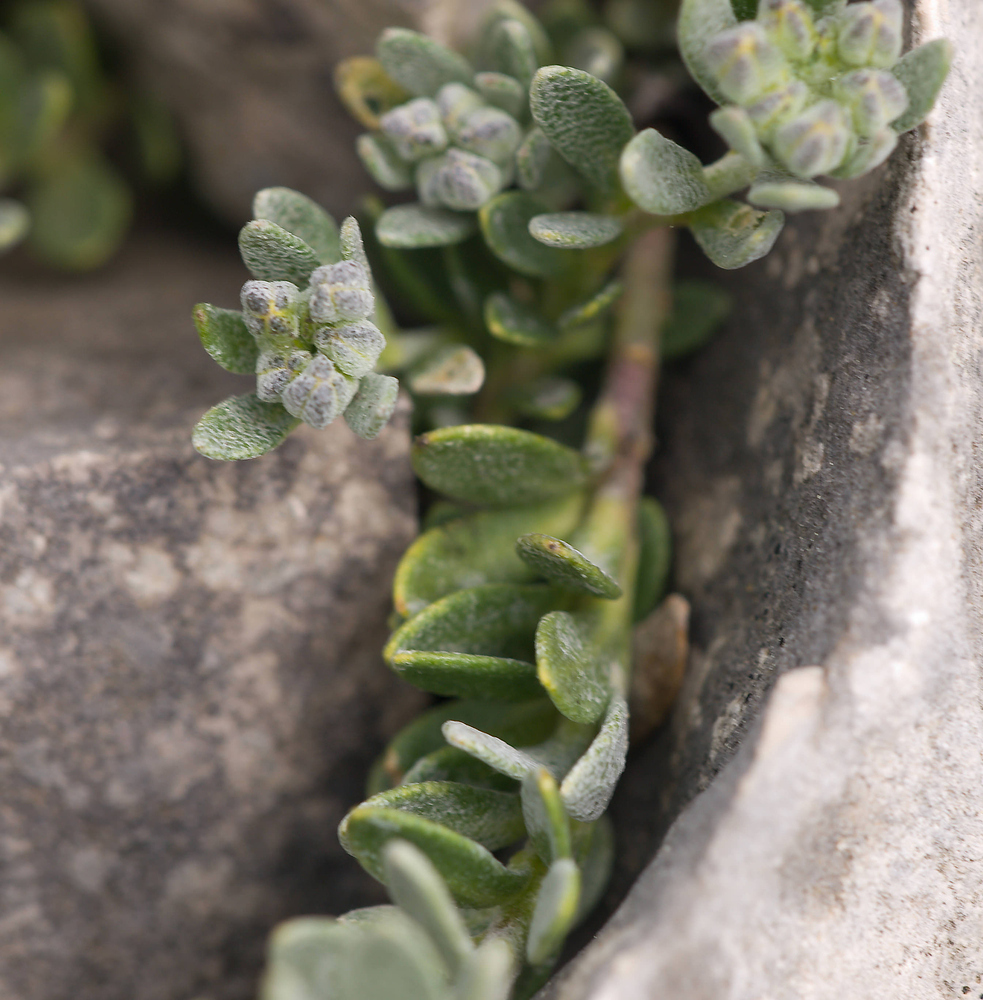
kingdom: Plantae
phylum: Tracheophyta
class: Magnoliopsida
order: Brassicales
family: Brassicaceae
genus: Alyssum
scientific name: Alyssum flexicaule
